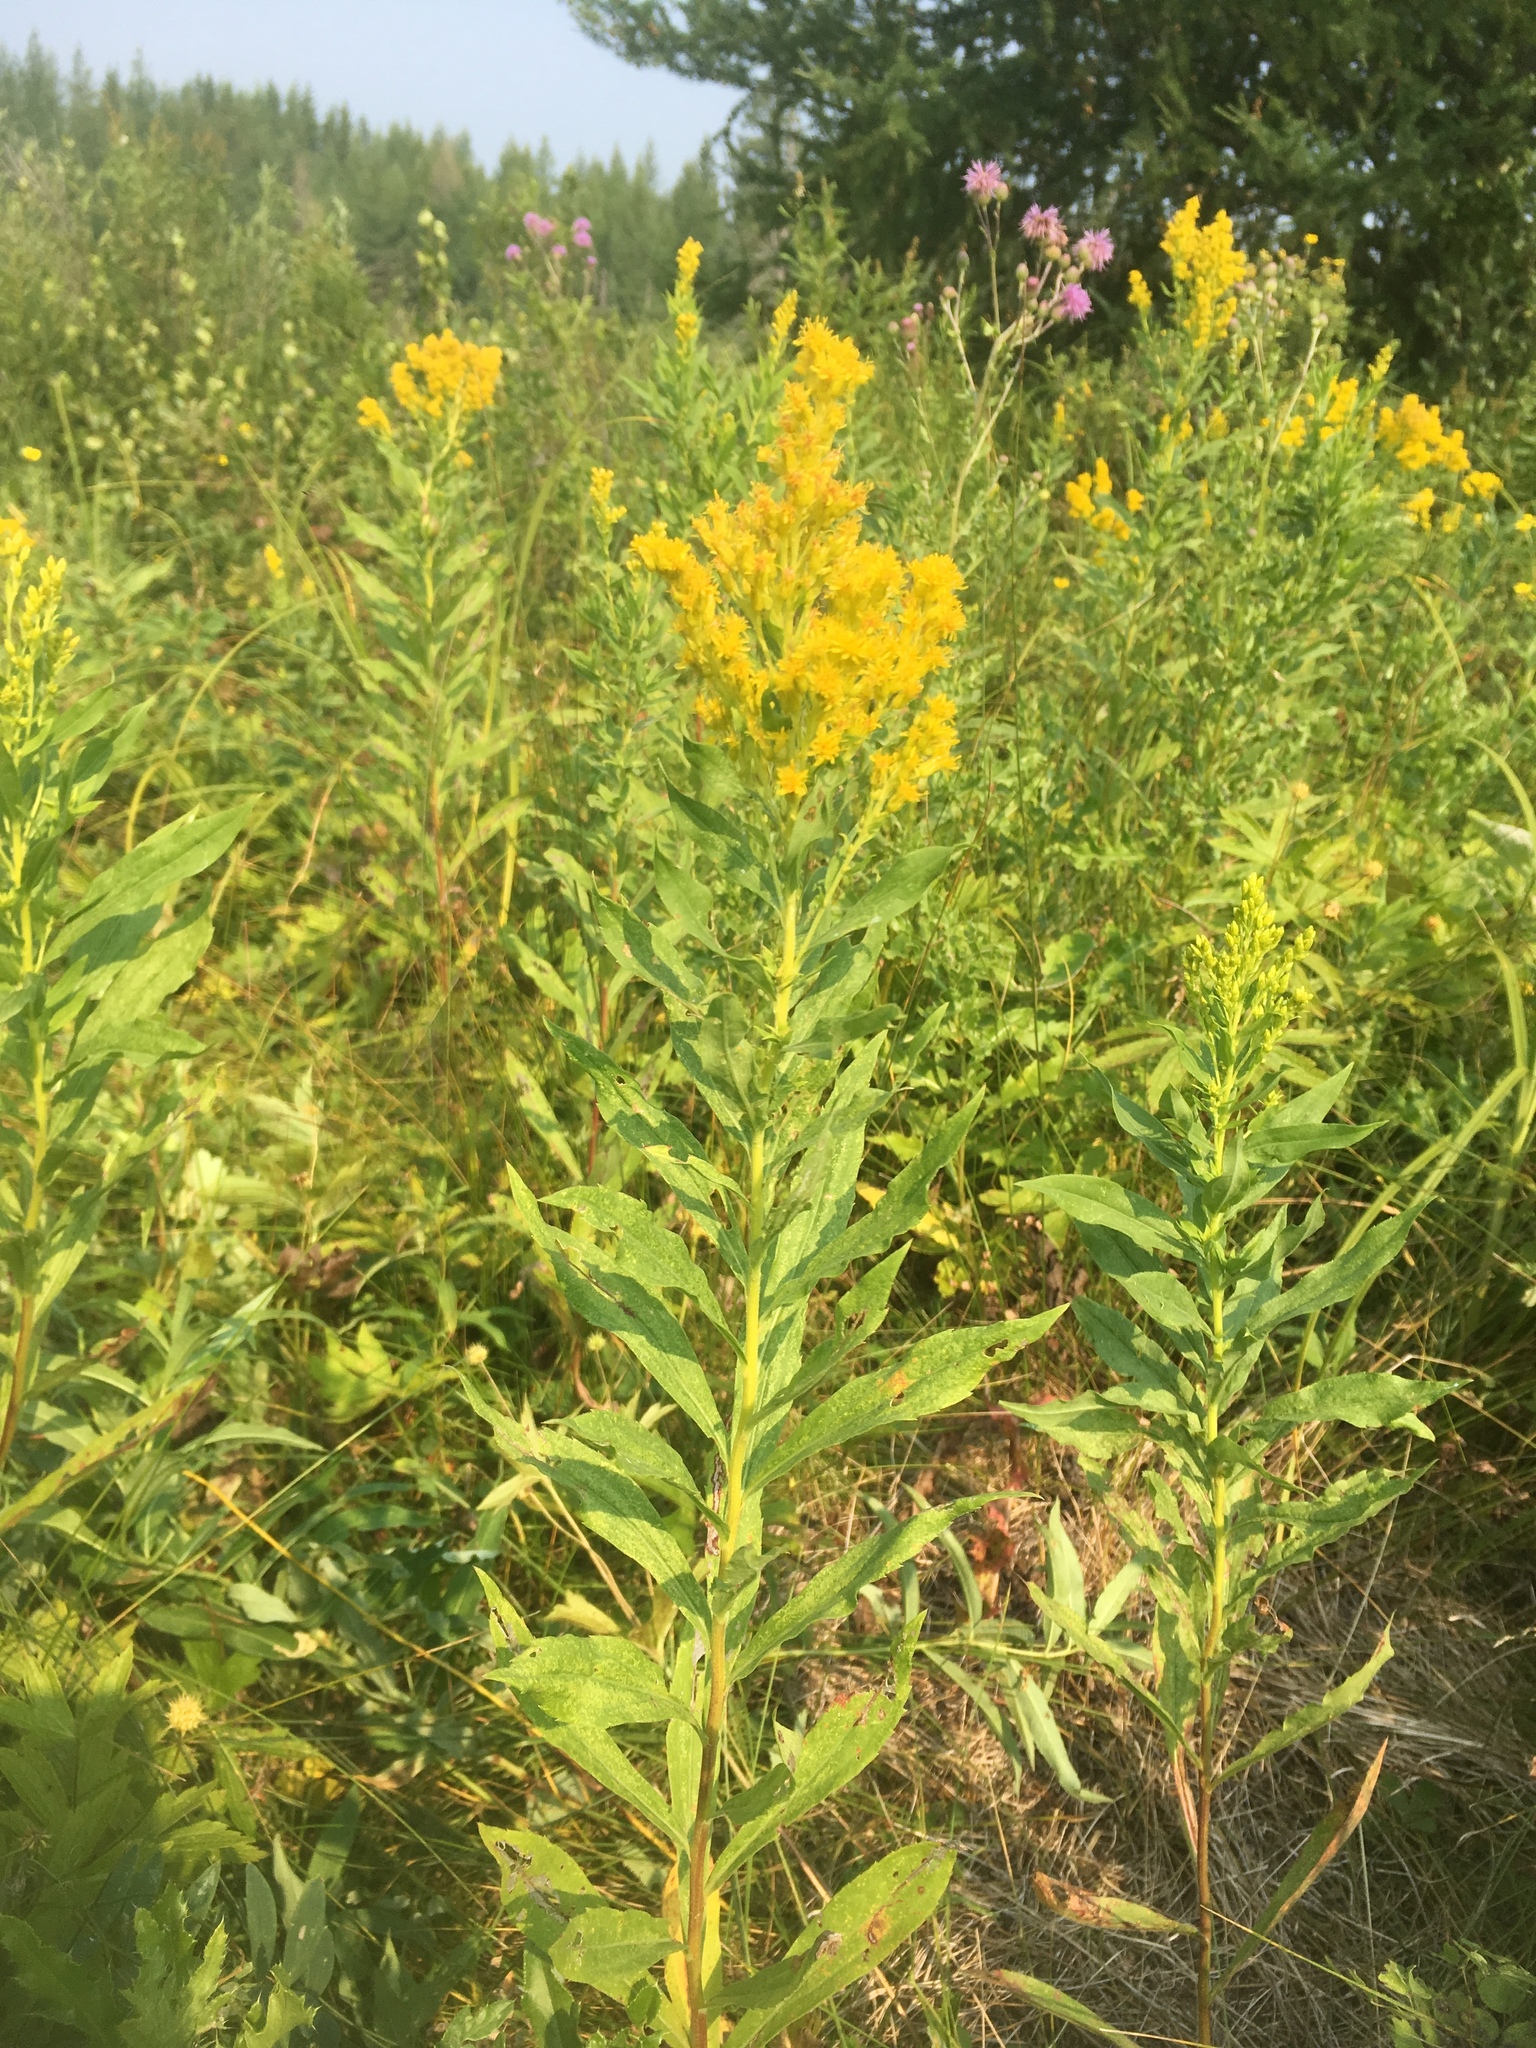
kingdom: Plantae
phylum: Tracheophyta
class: Magnoliopsida
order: Asterales
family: Asteraceae
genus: Solidago
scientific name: Solidago canadensis
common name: Canada goldenrod
